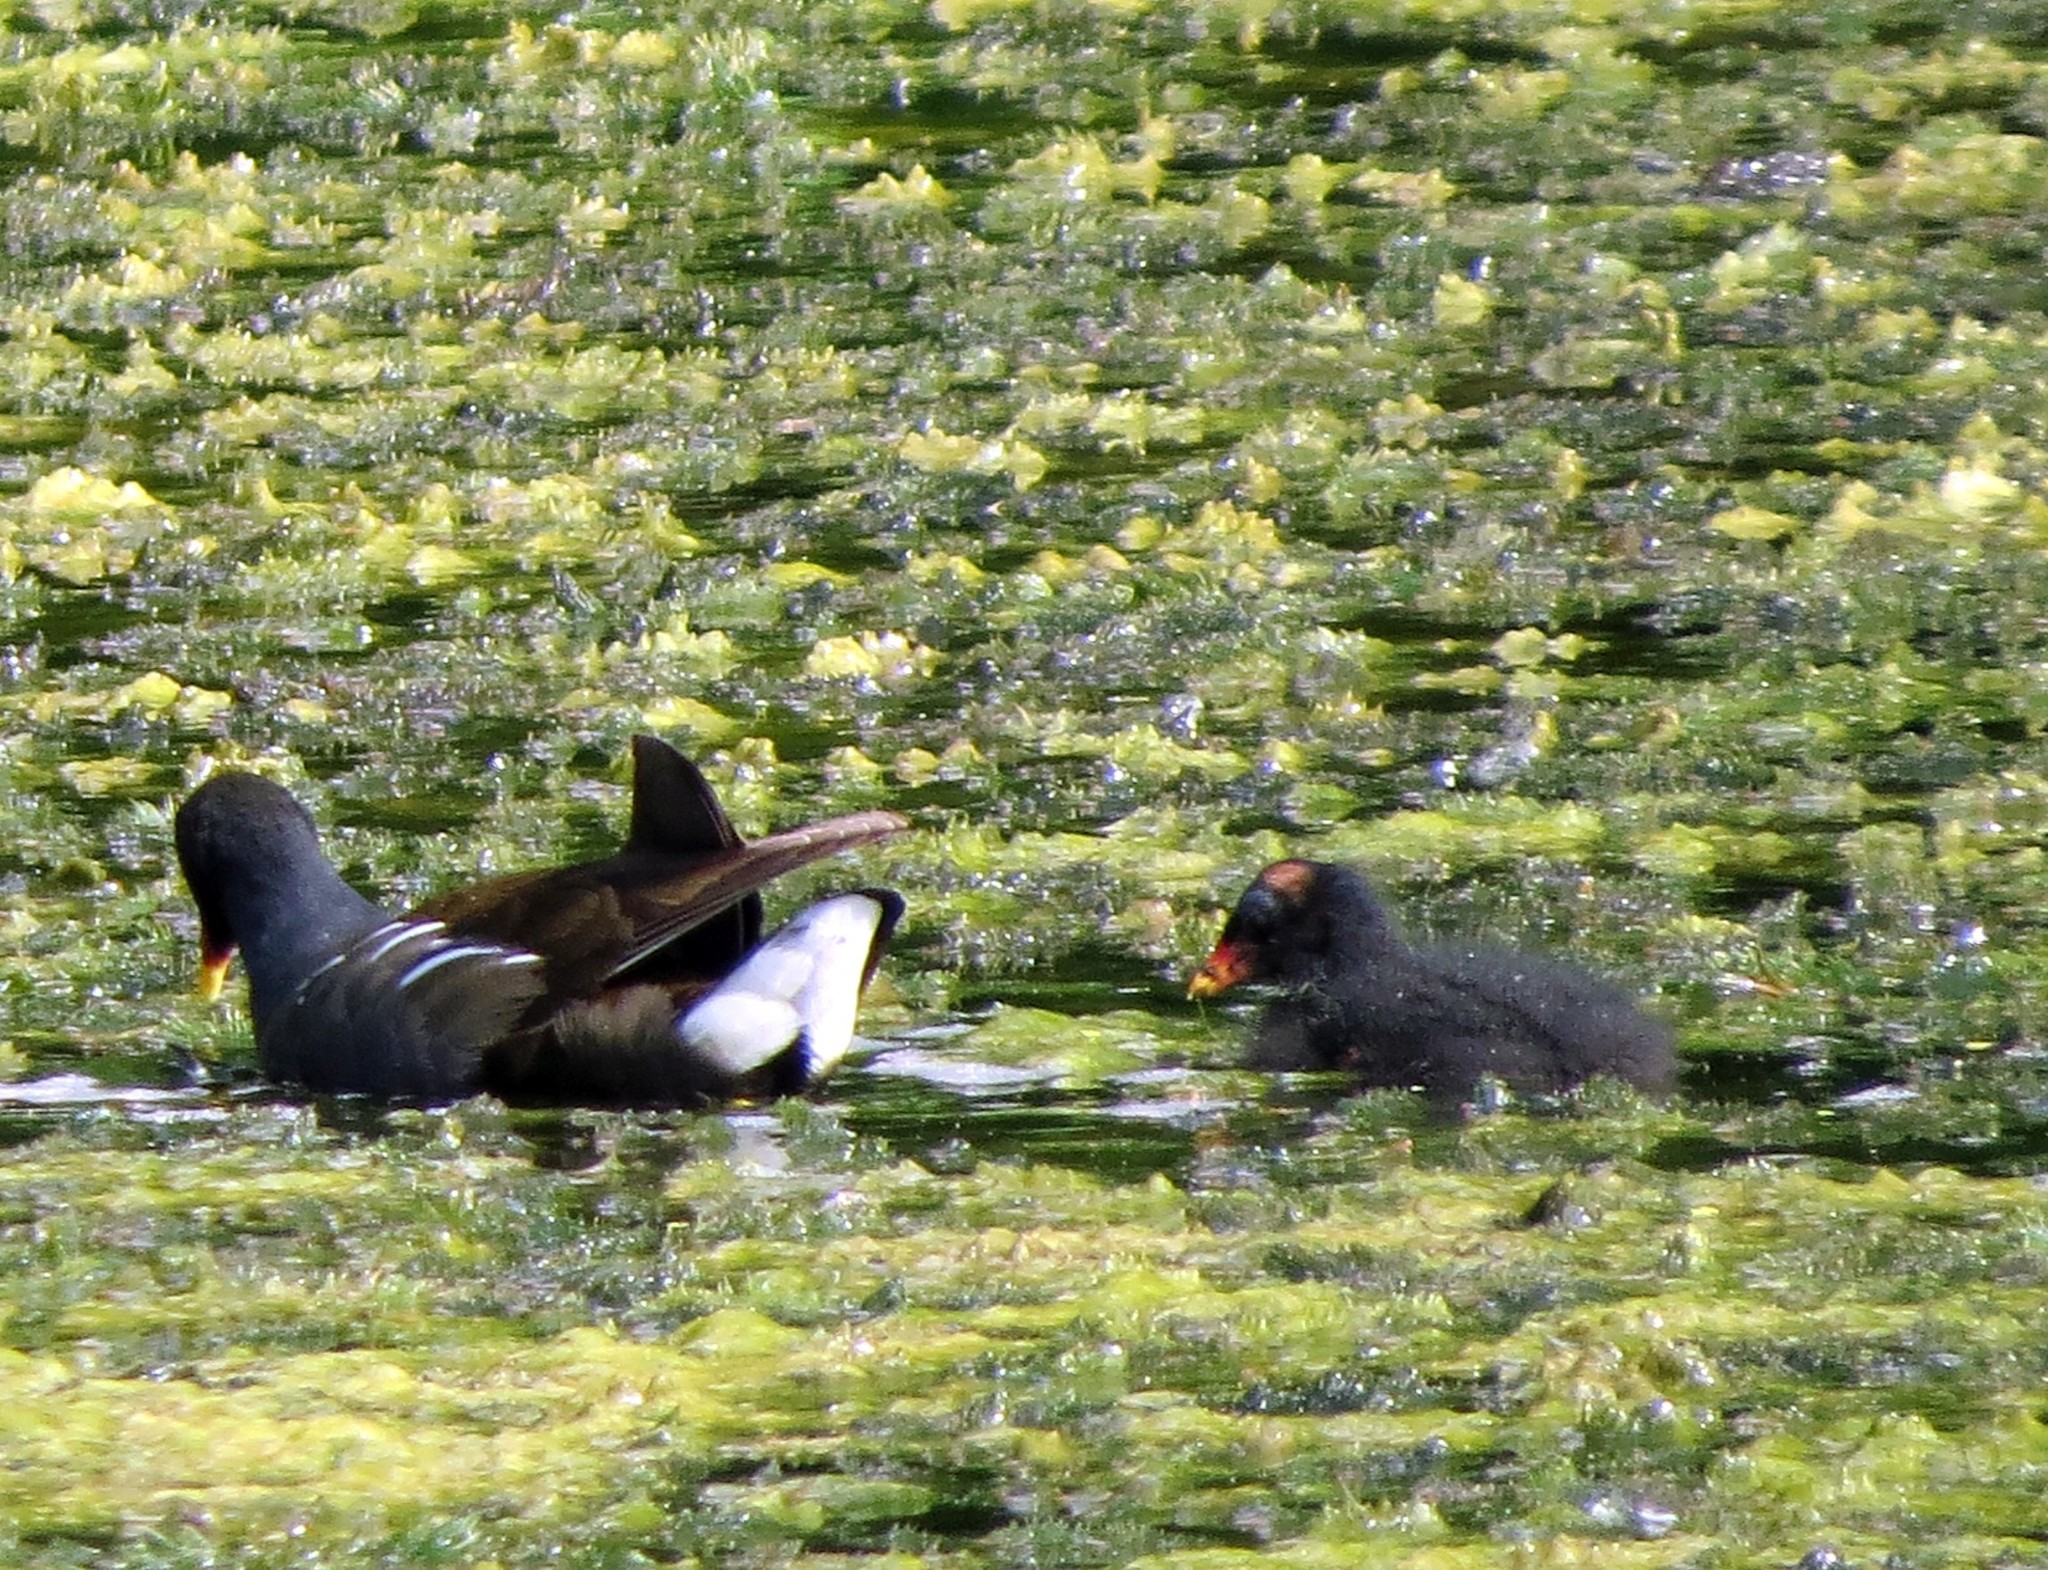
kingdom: Animalia
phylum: Chordata
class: Aves
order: Gruiformes
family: Rallidae
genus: Gallinula
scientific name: Gallinula chloropus
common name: Common moorhen
